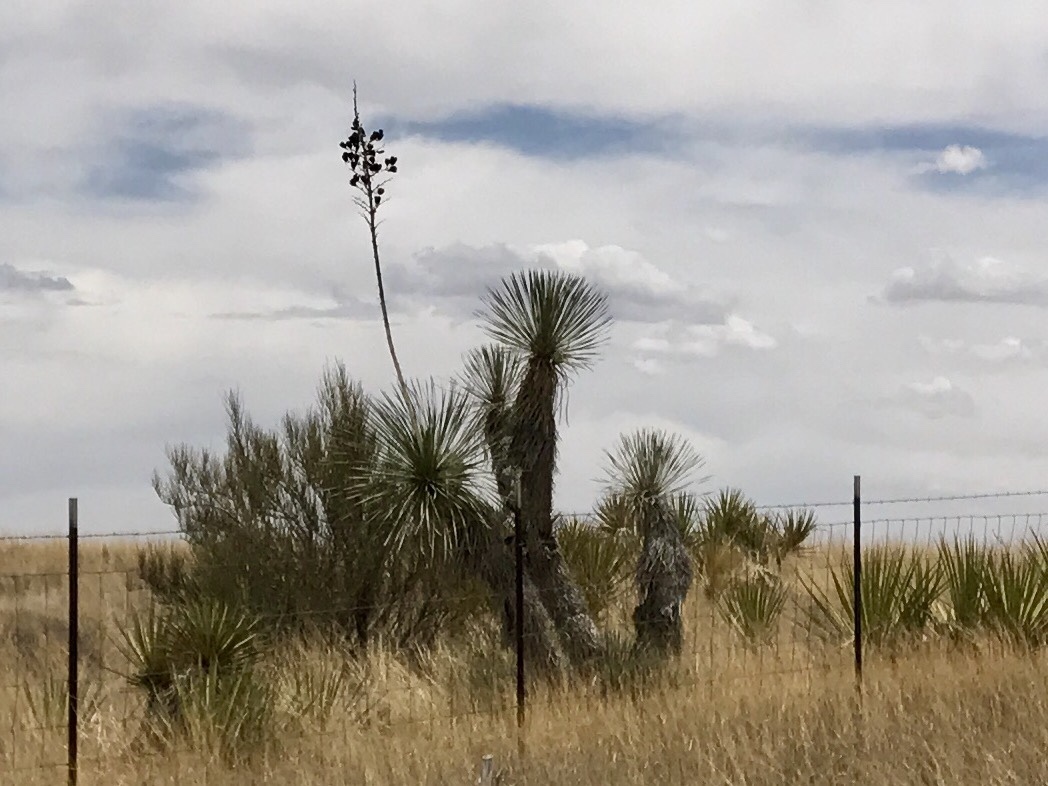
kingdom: Plantae
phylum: Tracheophyta
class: Liliopsida
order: Asparagales
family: Asparagaceae
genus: Yucca
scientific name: Yucca elata
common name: Palmella
